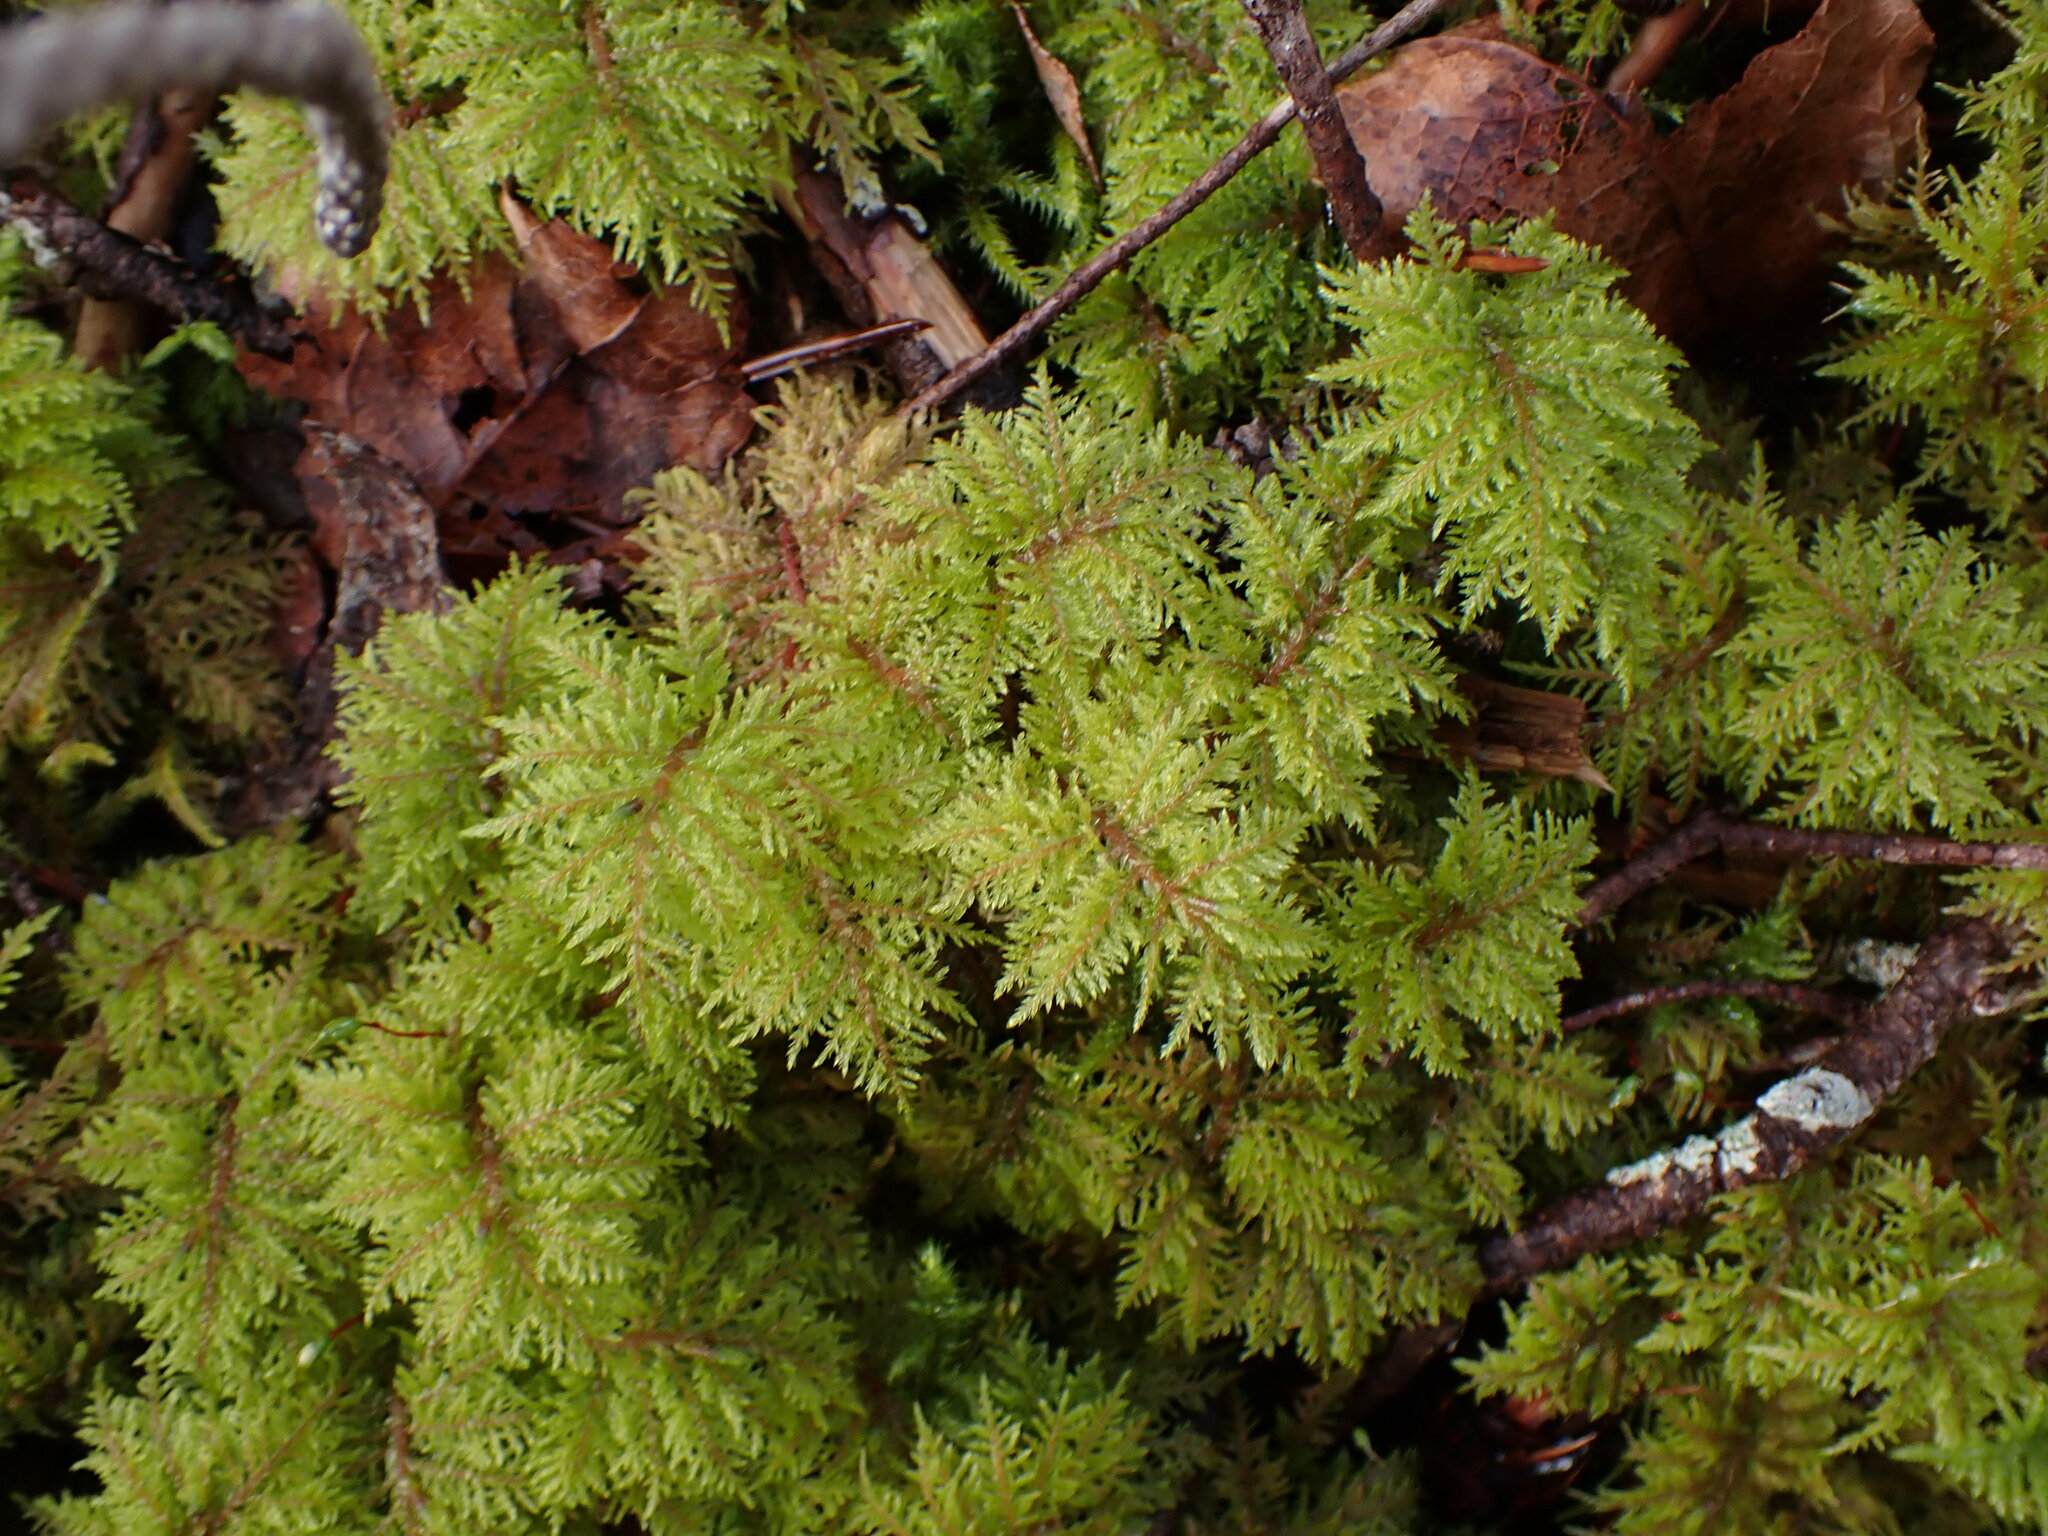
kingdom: Plantae
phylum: Bryophyta
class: Bryopsida
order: Hypnales
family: Hylocomiaceae
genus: Hylocomium
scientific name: Hylocomium splendens
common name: Stairstep moss
